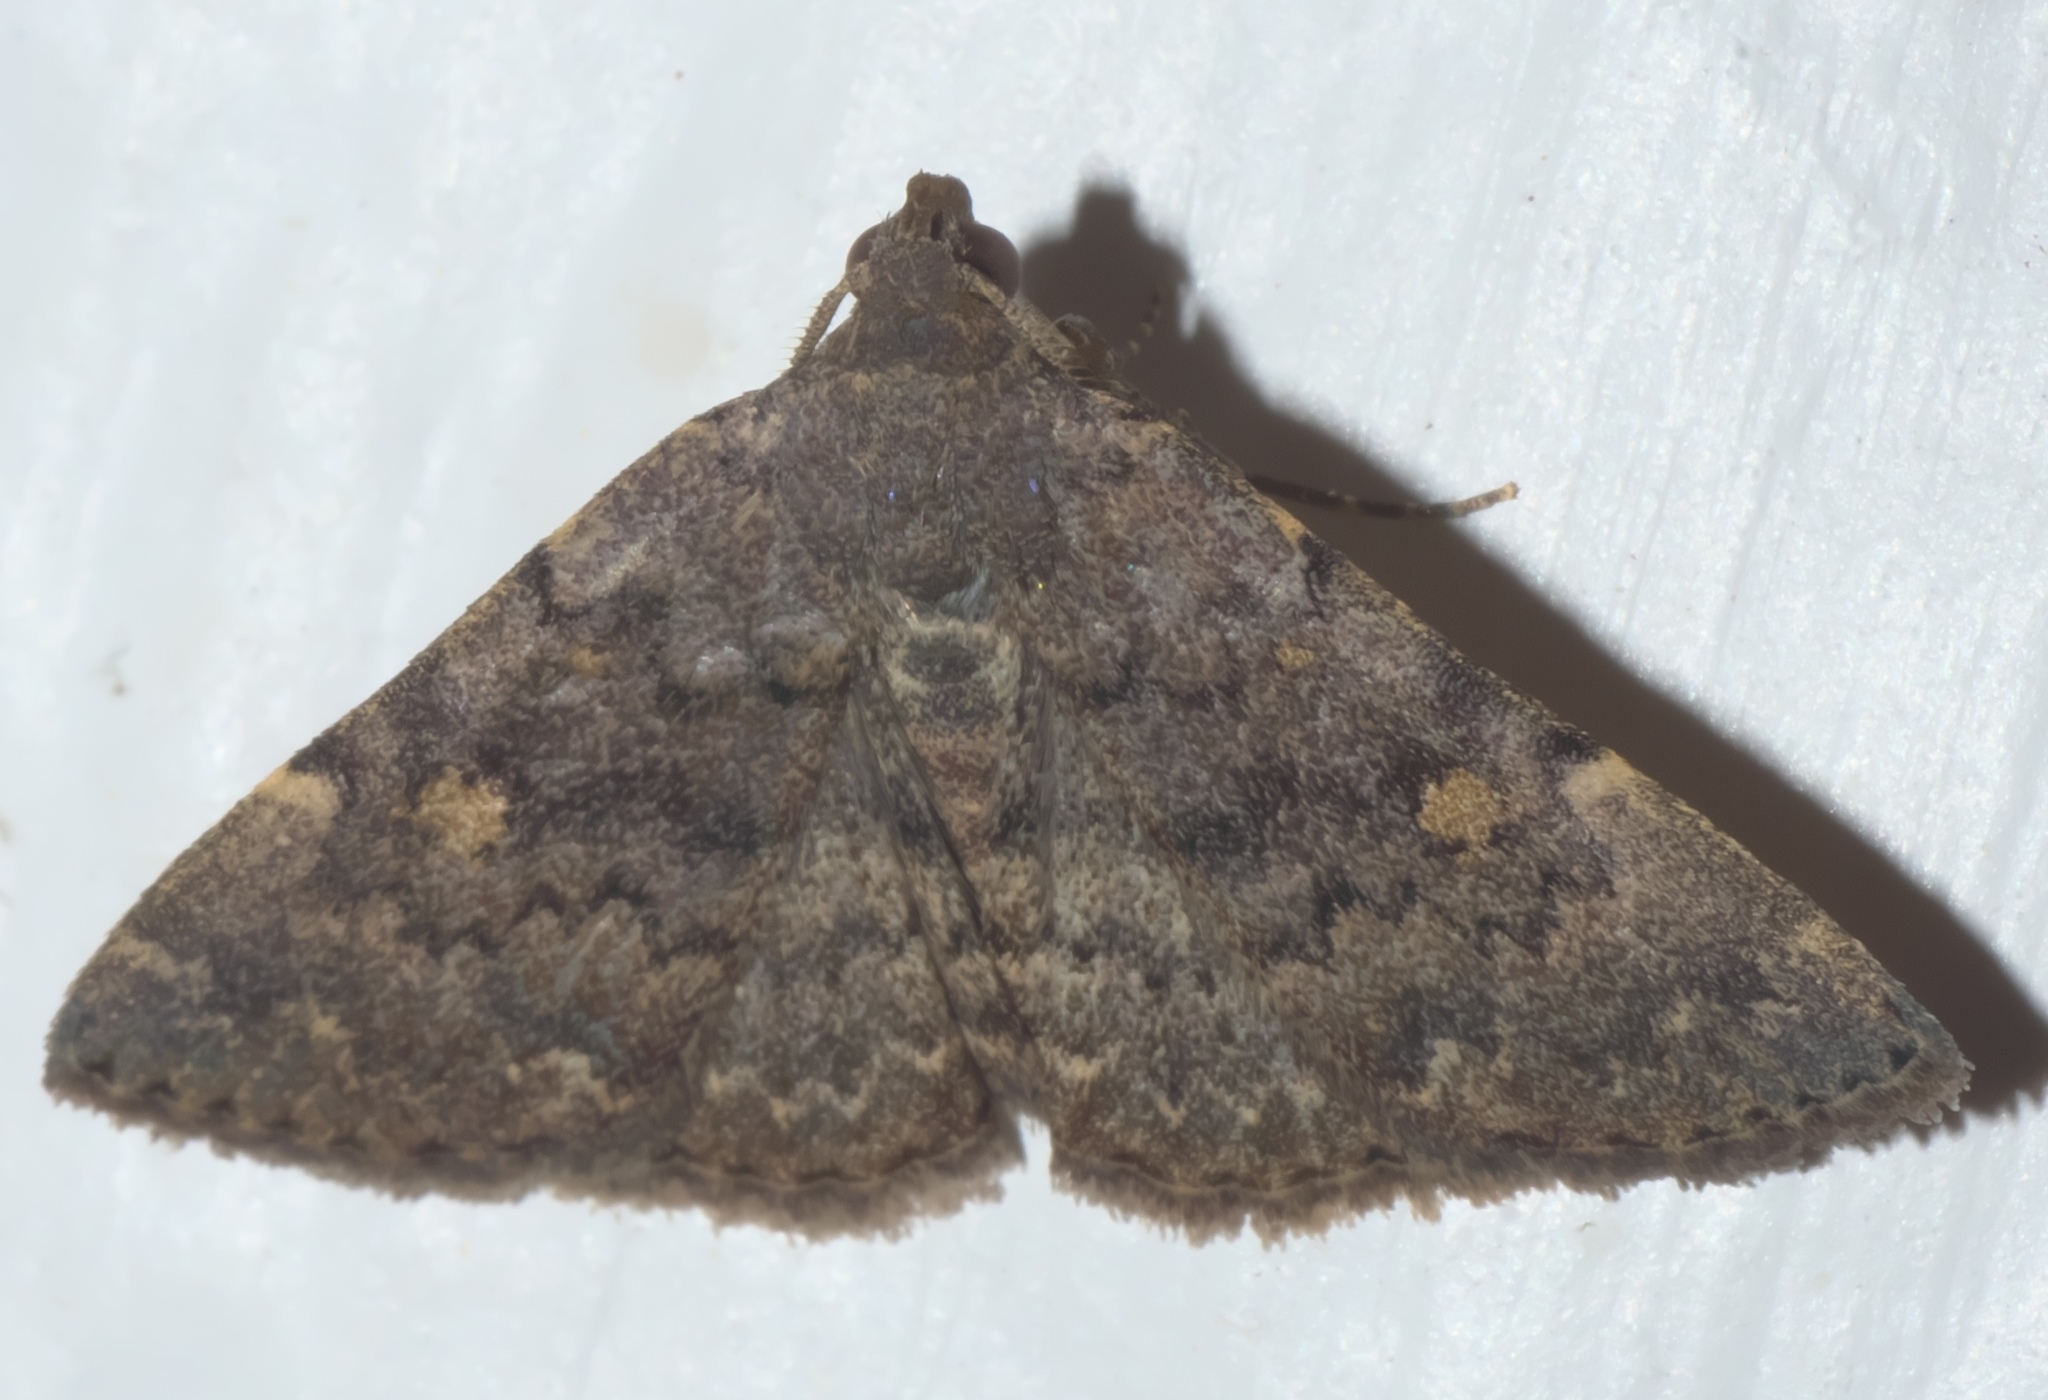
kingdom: Animalia
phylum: Arthropoda
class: Insecta
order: Lepidoptera
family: Erebidae
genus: Idia
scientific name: Idia aemula
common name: Common idia moth
